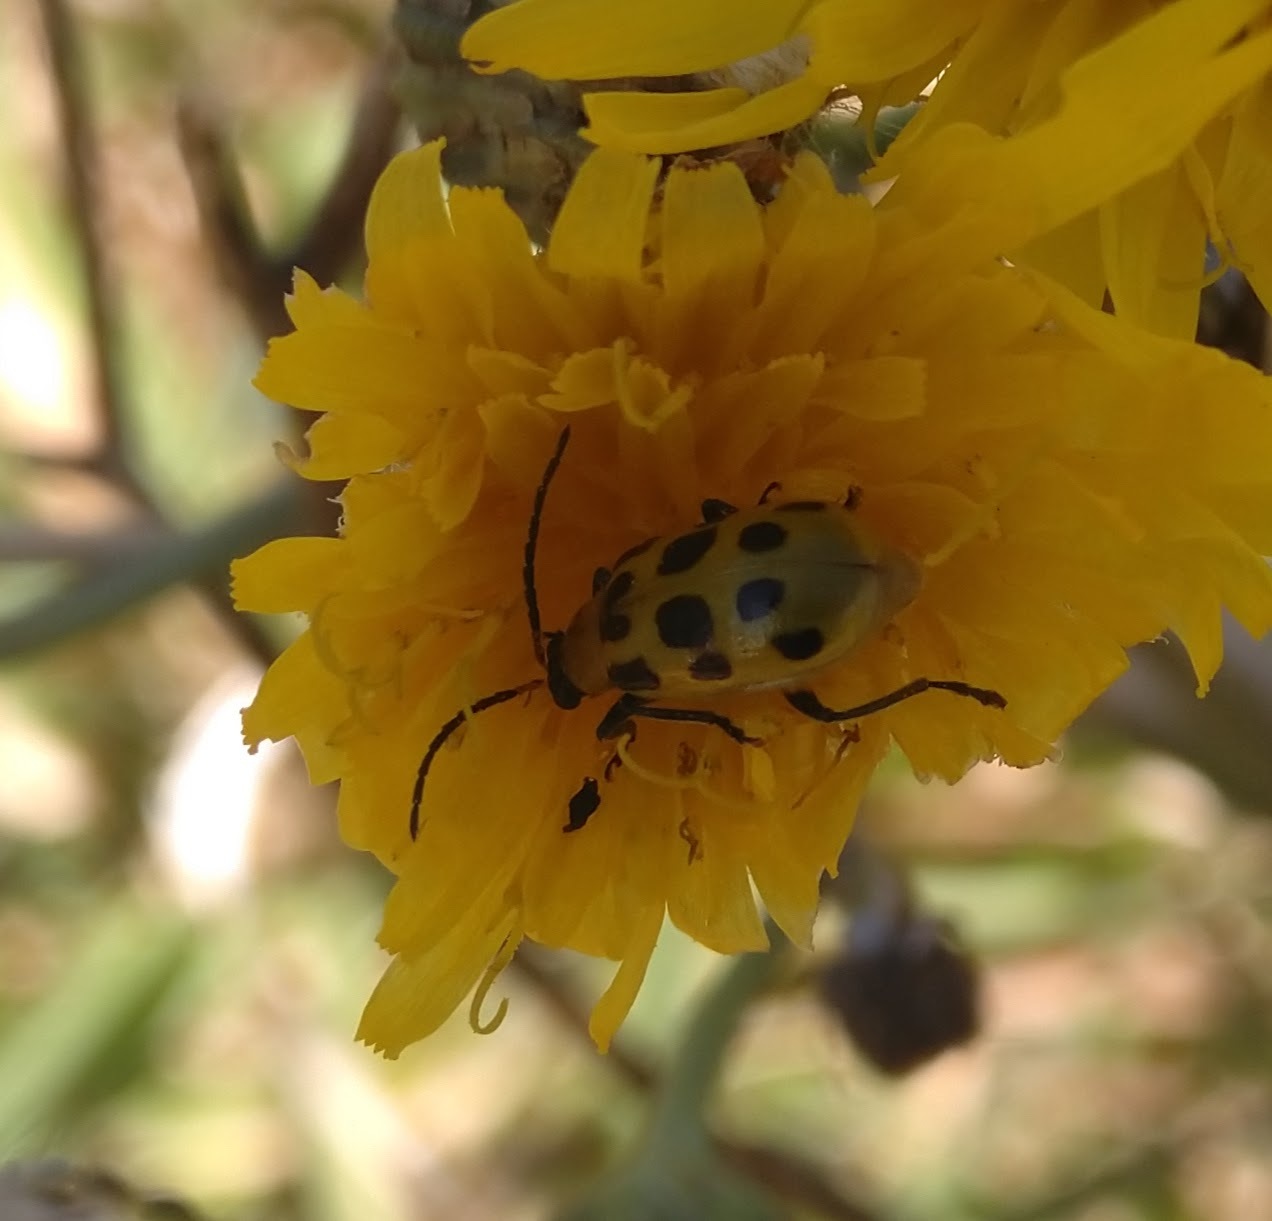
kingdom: Animalia
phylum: Arthropoda
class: Insecta
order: Coleoptera
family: Chrysomelidae
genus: Diabrotica
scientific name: Diabrotica undecimpunctata
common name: Spotted cucumber beetle
